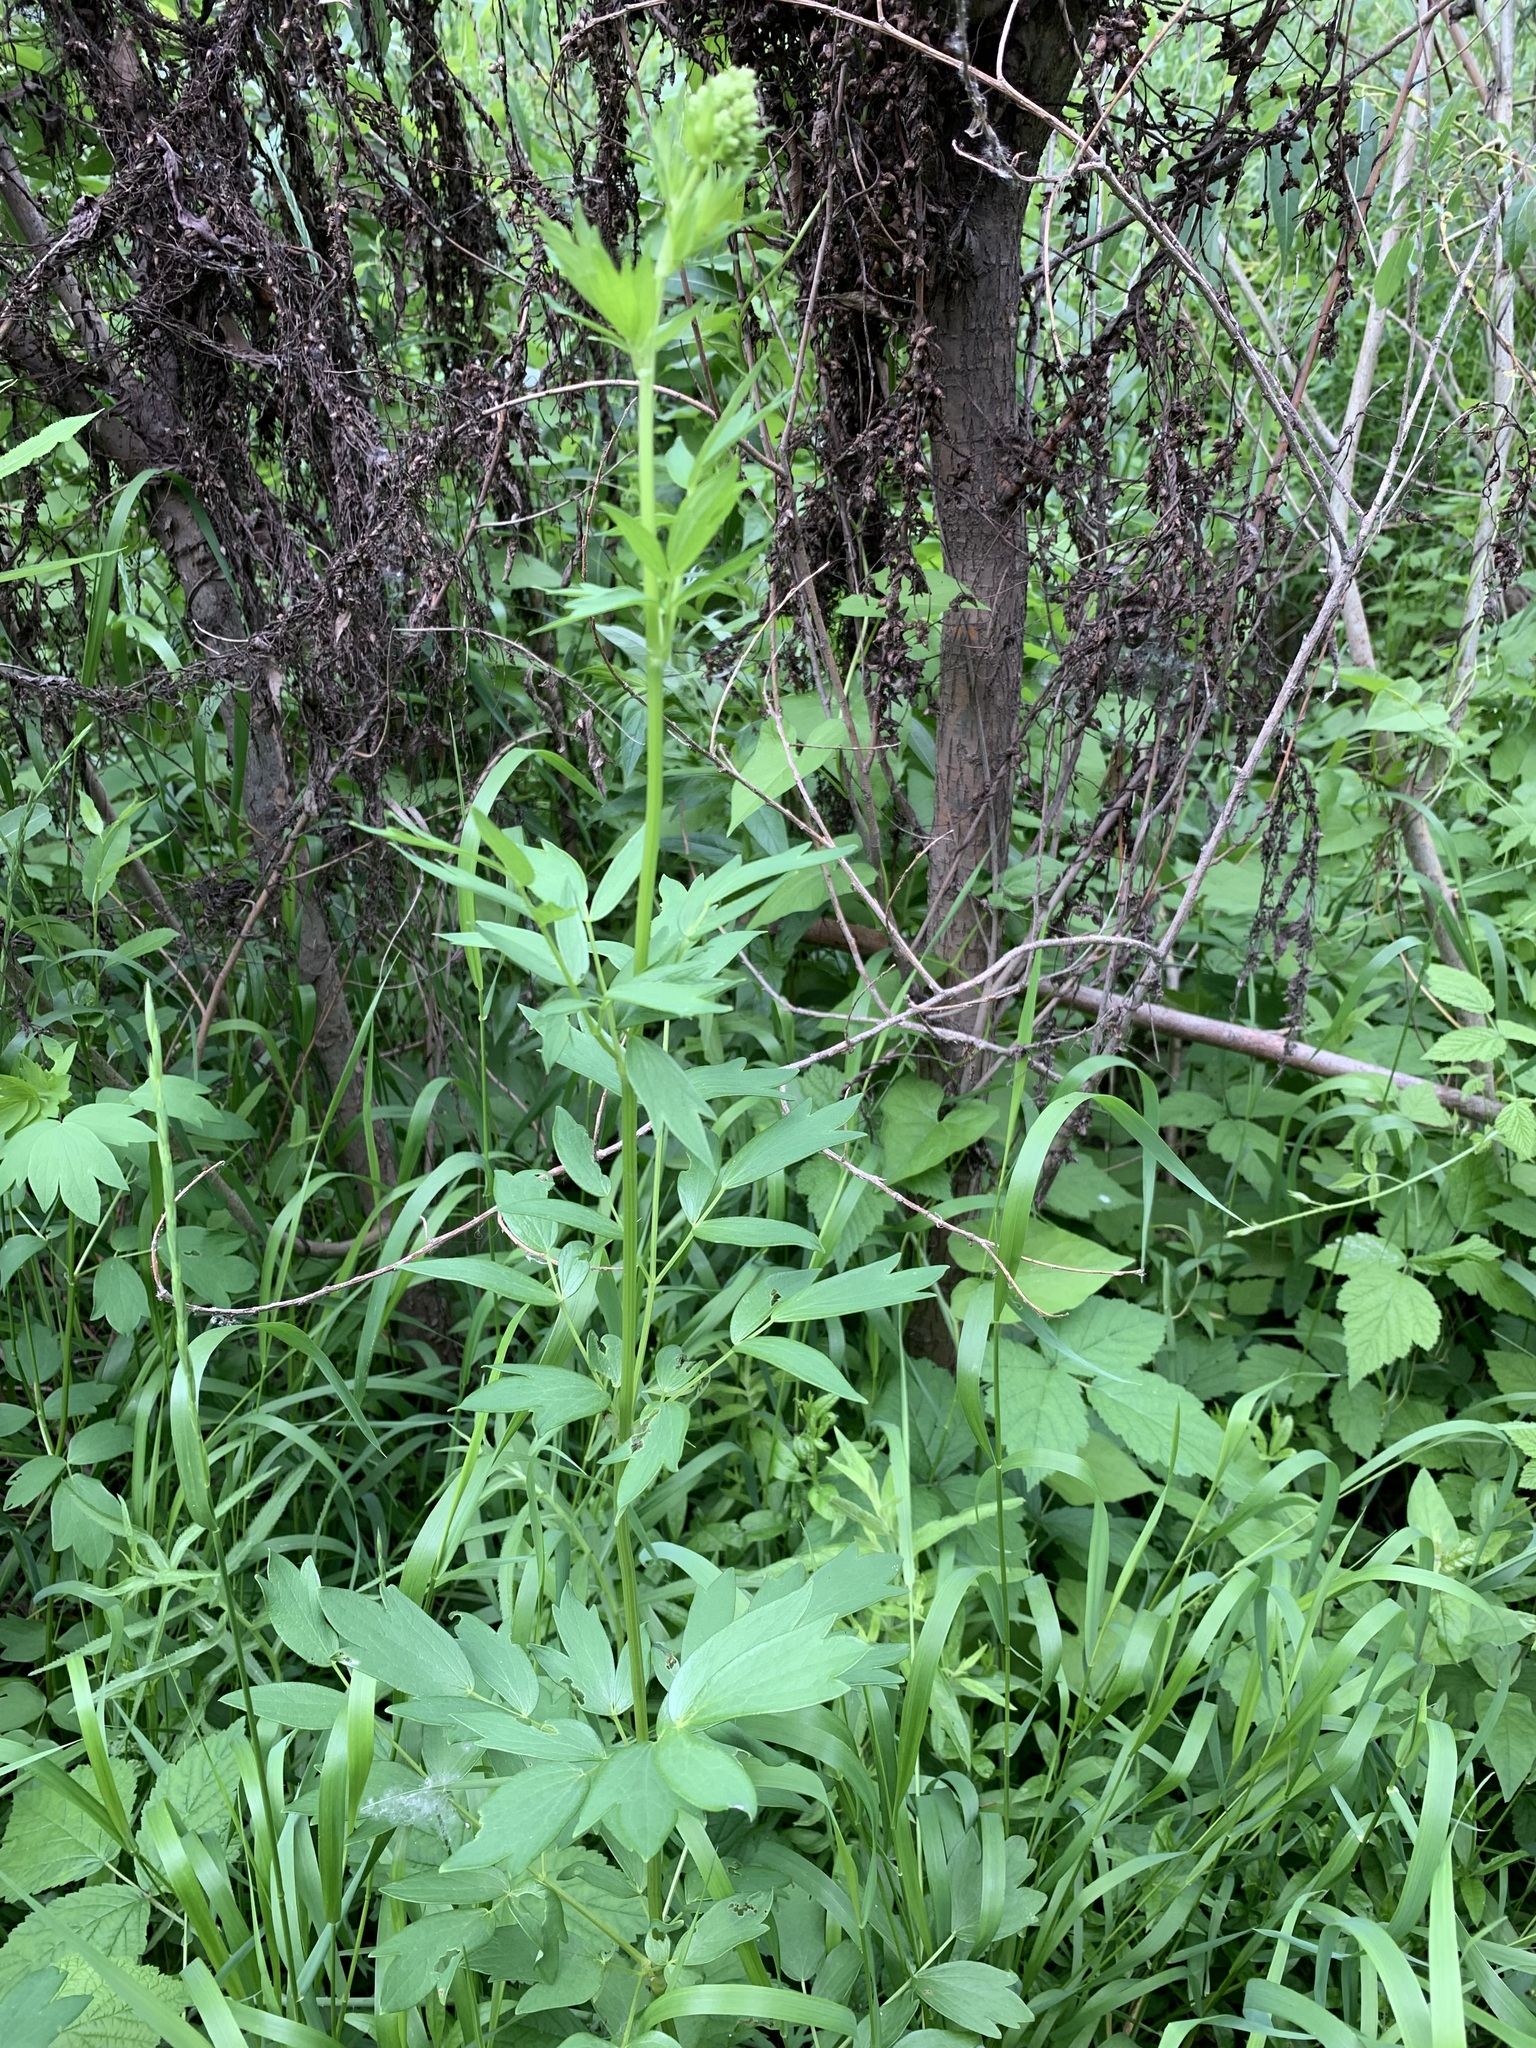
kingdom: Plantae
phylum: Tracheophyta
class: Magnoliopsida
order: Ranunculales
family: Ranunculaceae
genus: Thalictrum
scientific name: Thalictrum flavum
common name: Common meadow-rue
